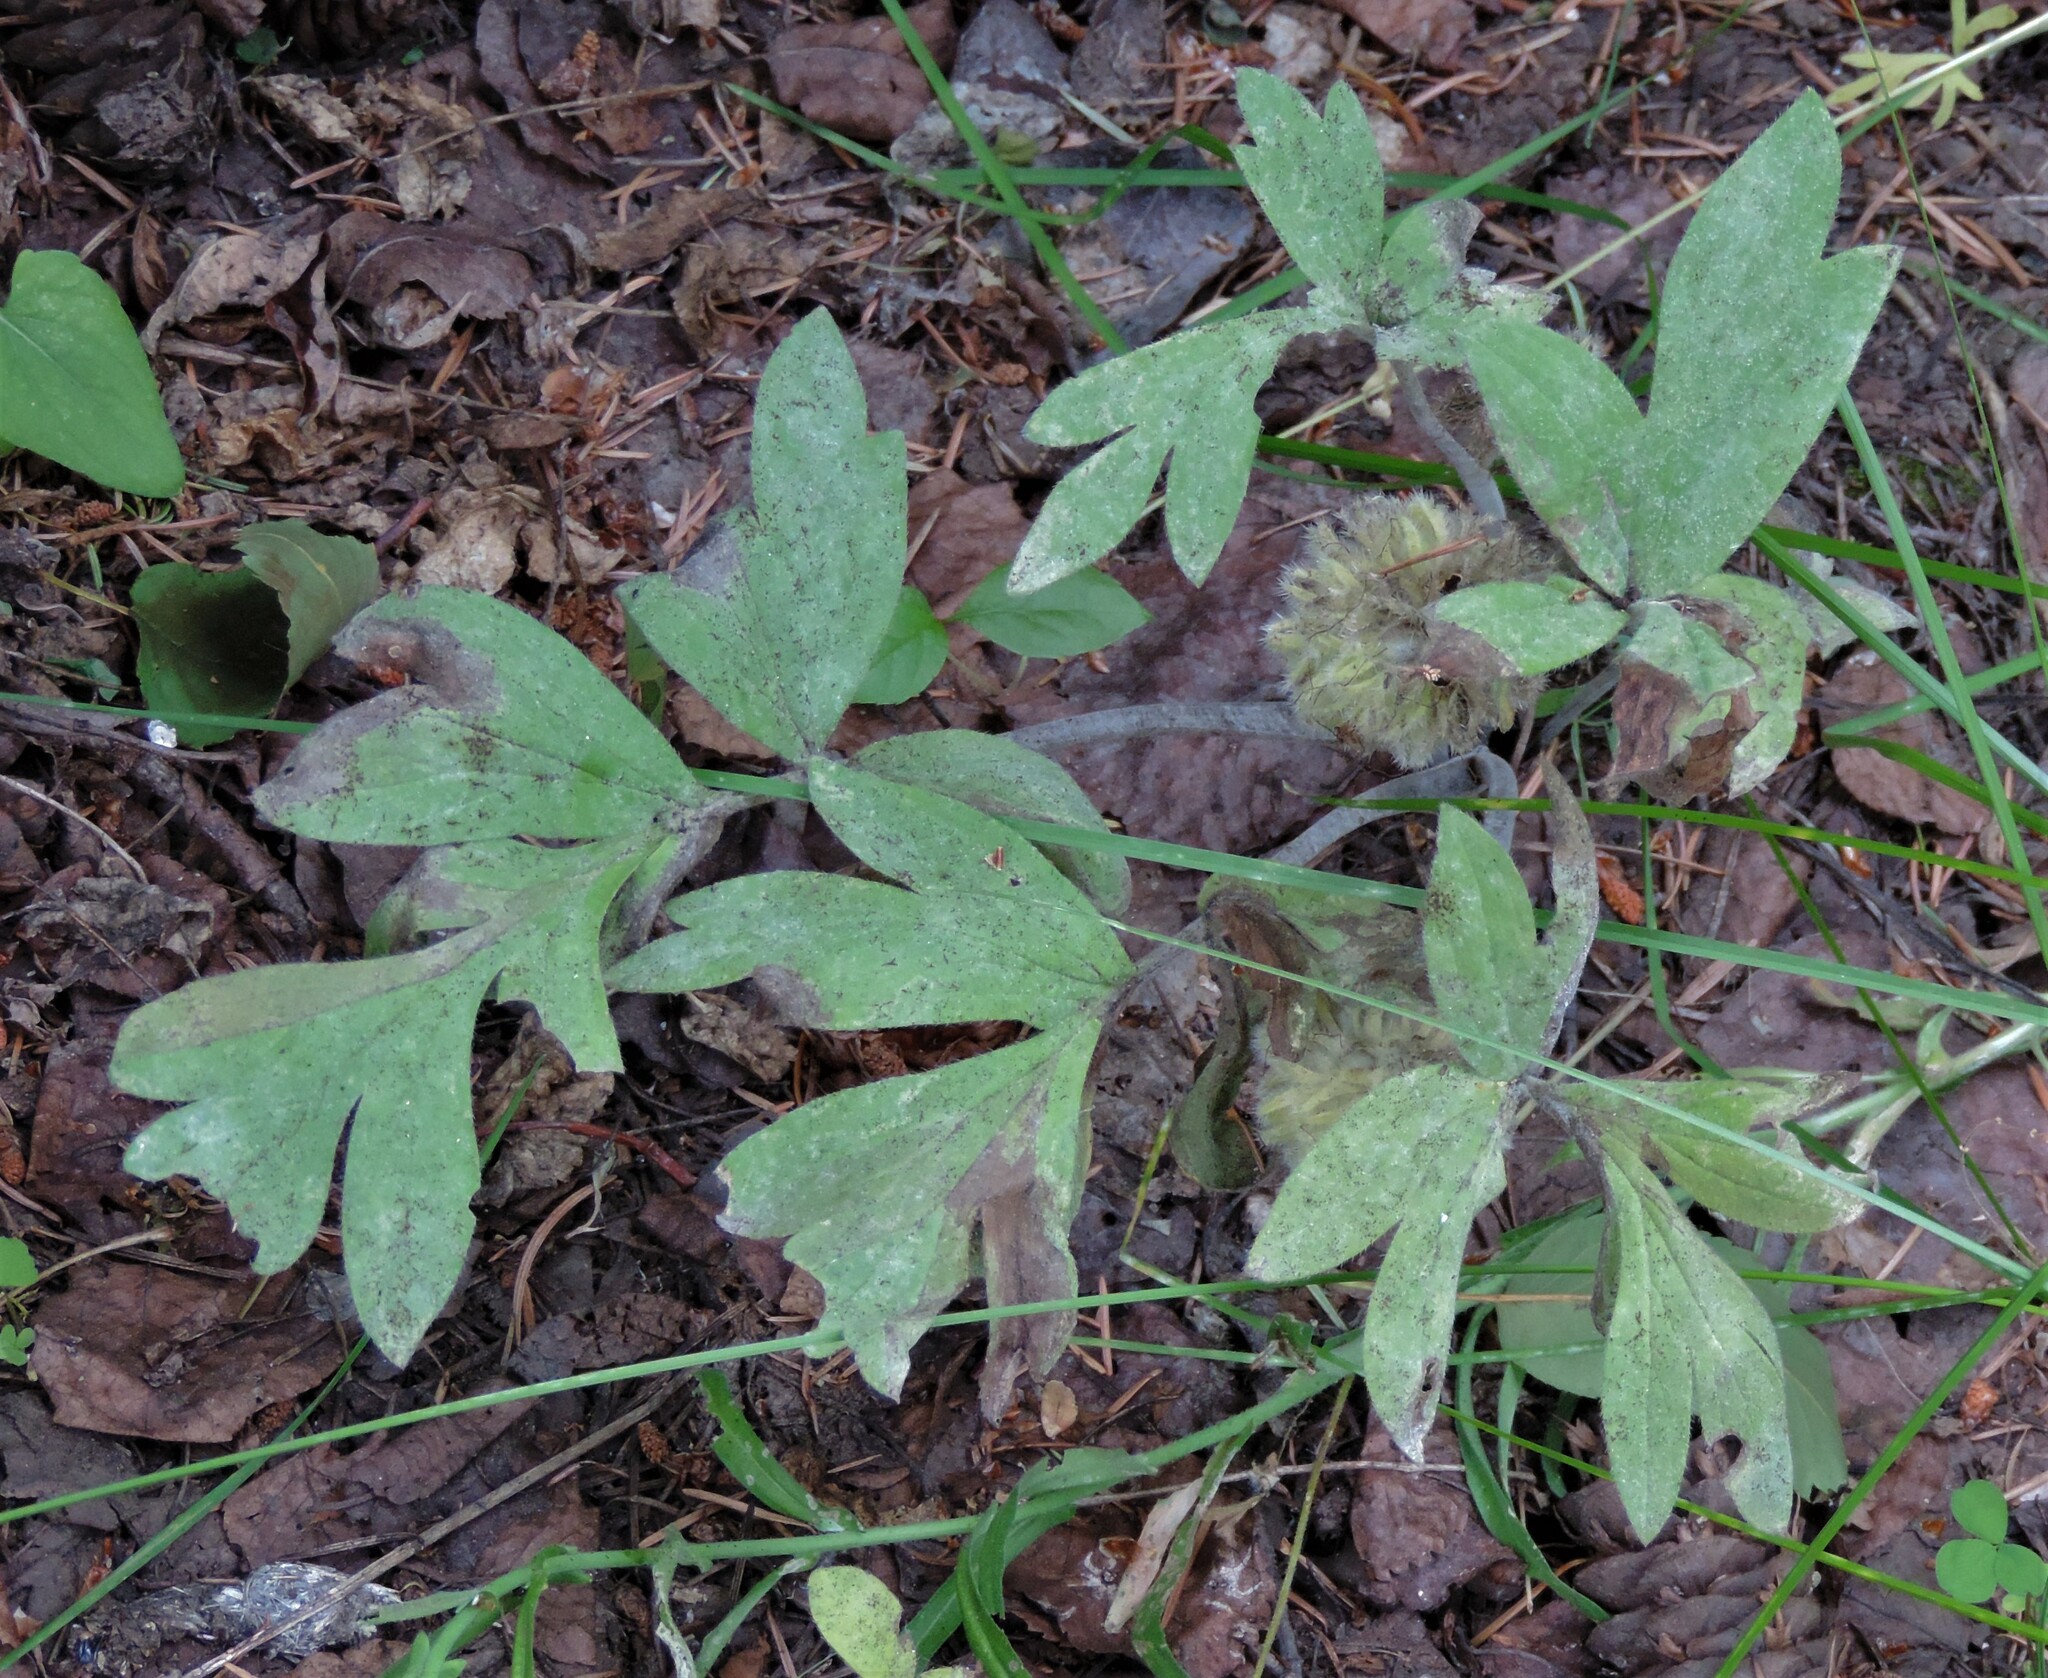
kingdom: Plantae
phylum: Tracheophyta
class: Magnoliopsida
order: Boraginales
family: Hydrophyllaceae
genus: Hydrophyllum
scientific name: Hydrophyllum capitatum
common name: Woollen-breeches
